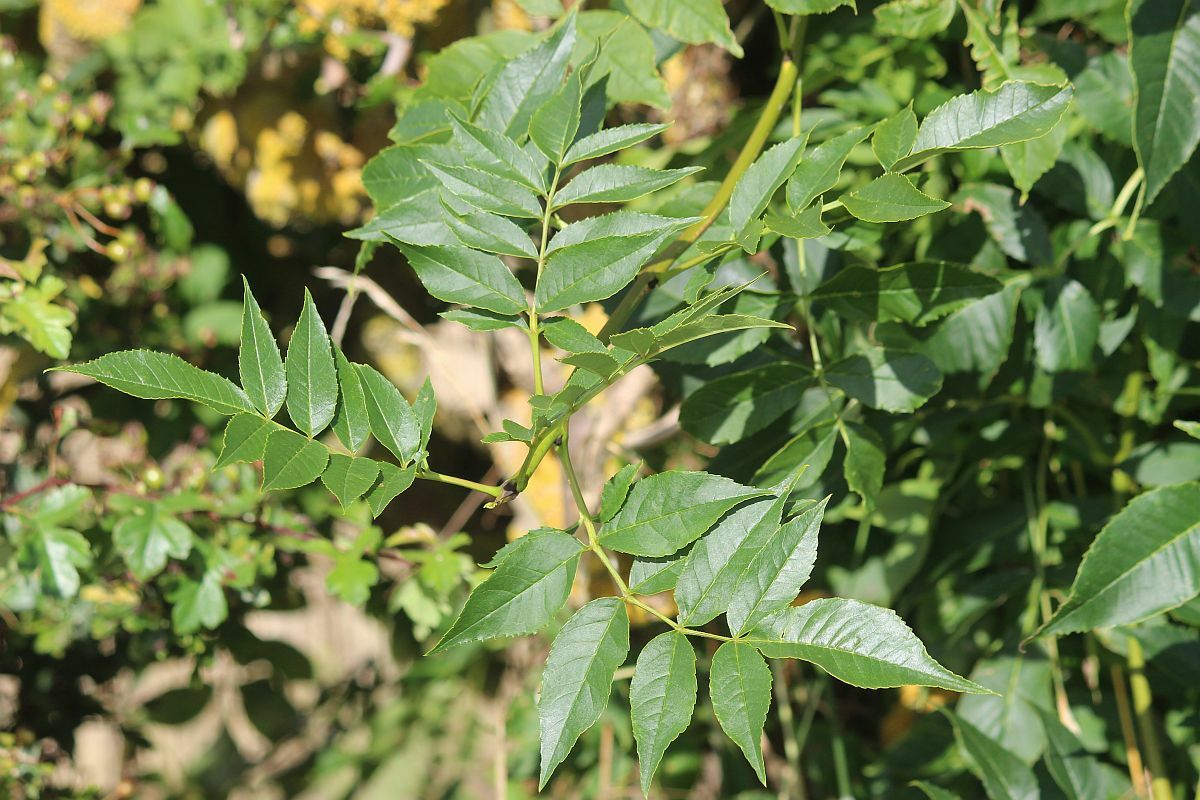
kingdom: Plantae
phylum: Tracheophyta
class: Magnoliopsida
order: Lamiales
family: Oleaceae
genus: Fraxinus
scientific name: Fraxinus excelsior
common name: European ash
